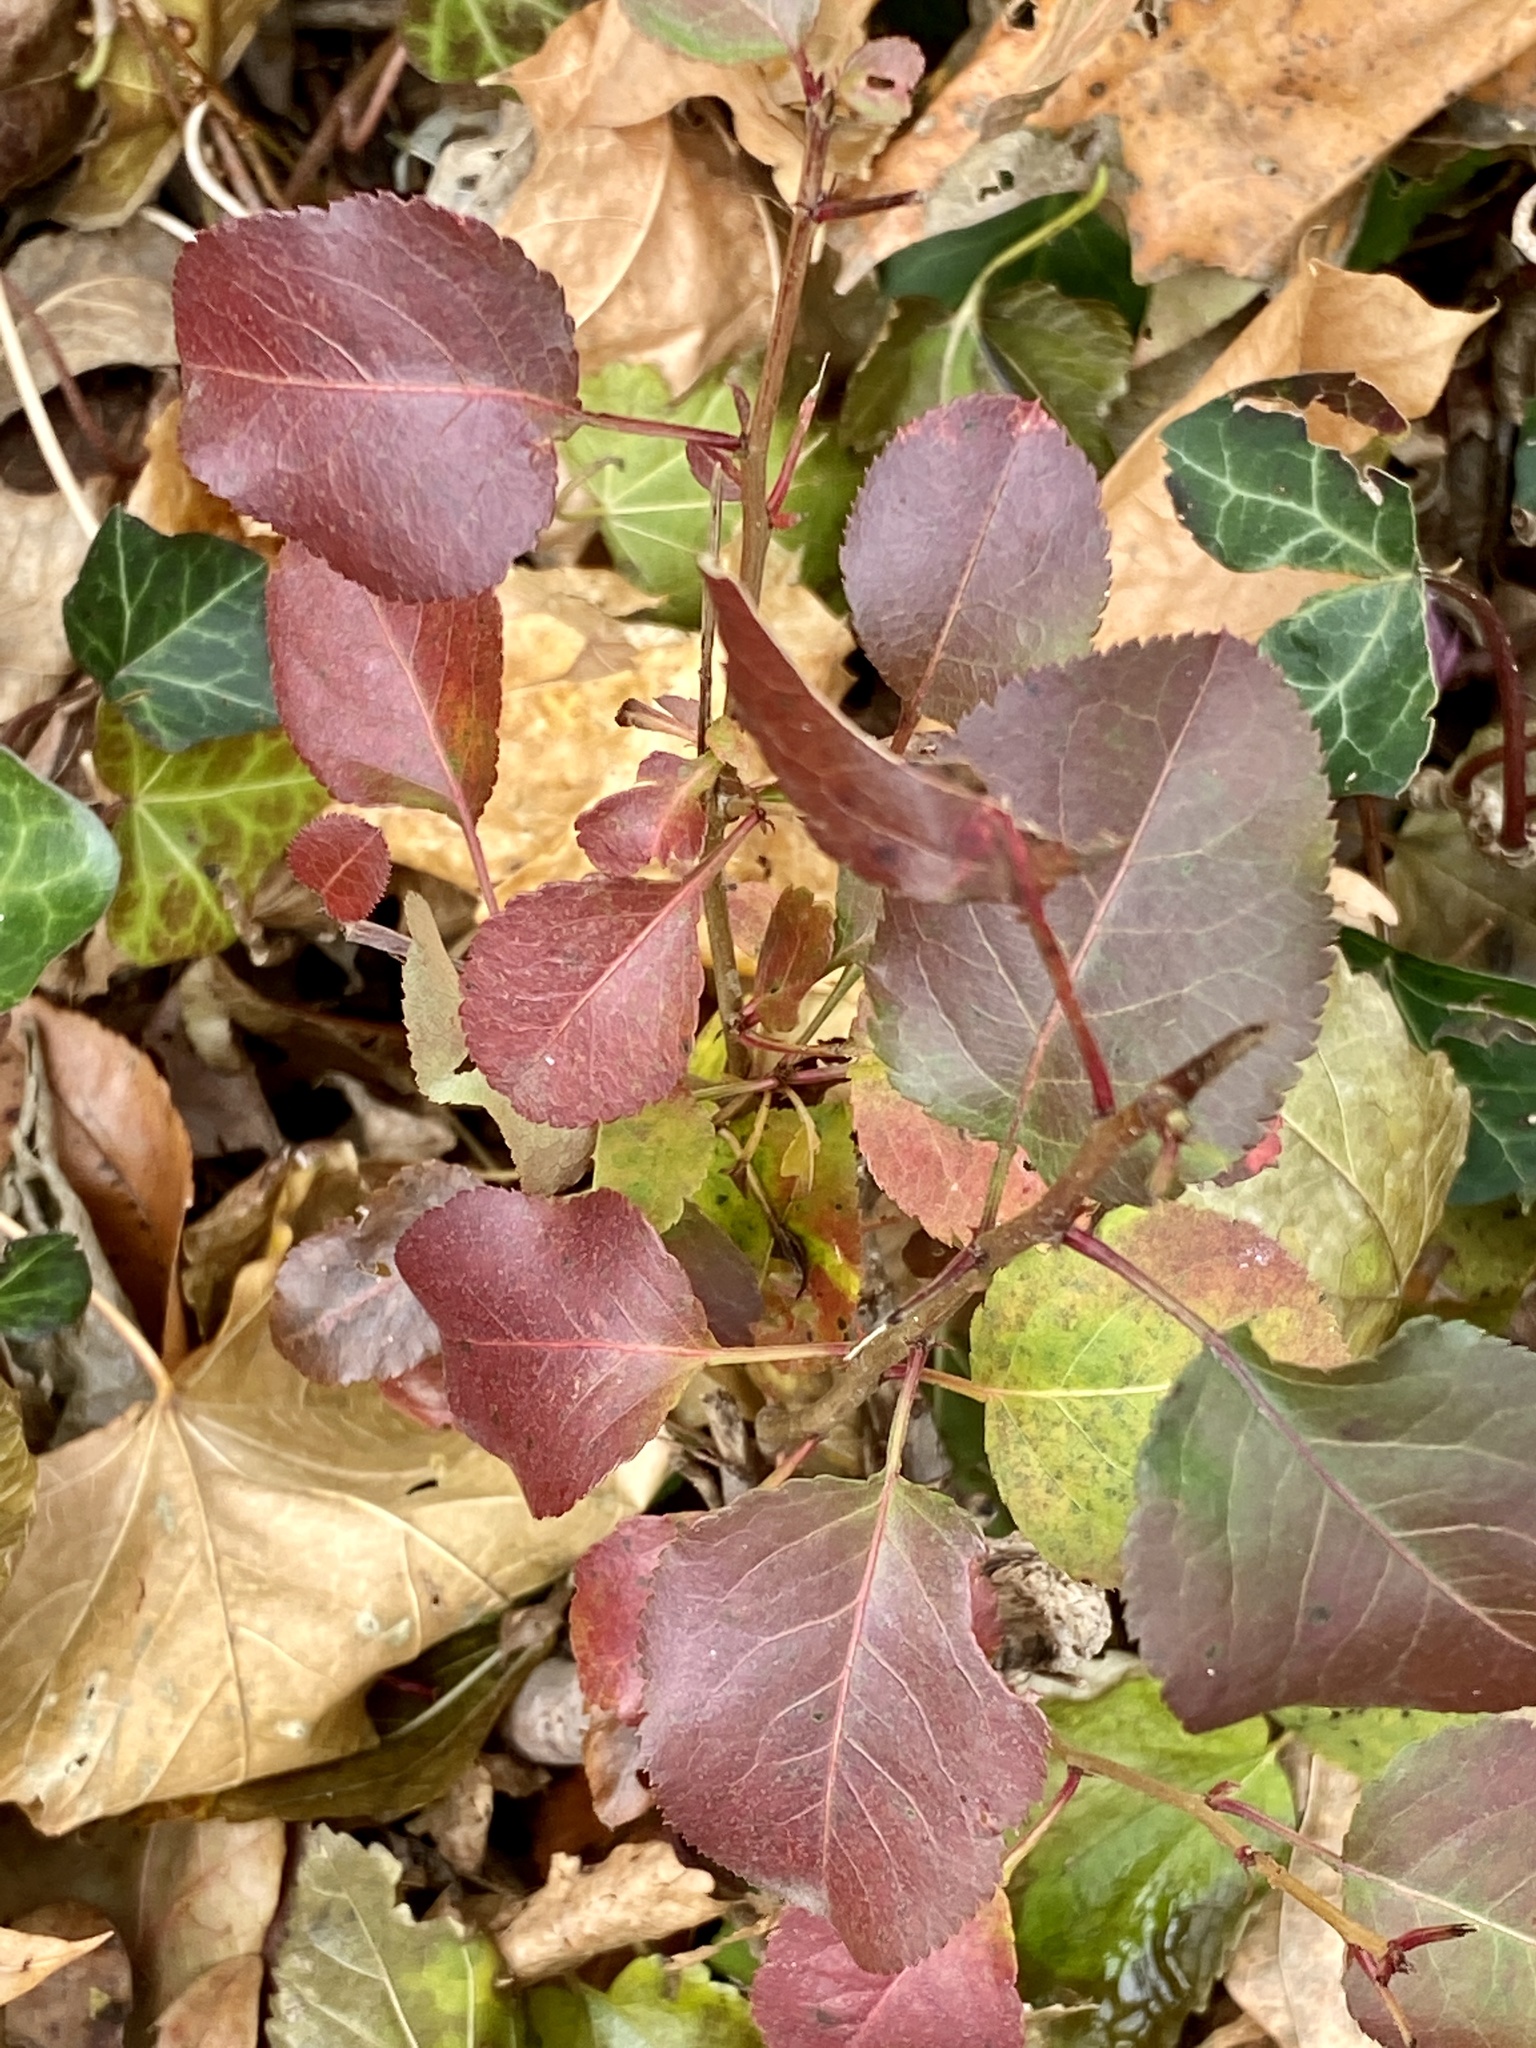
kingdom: Plantae
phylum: Tracheophyta
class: Magnoliopsida
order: Rosales
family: Rosaceae
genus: Pyrus
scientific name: Pyrus calleryana
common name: Callery pear
